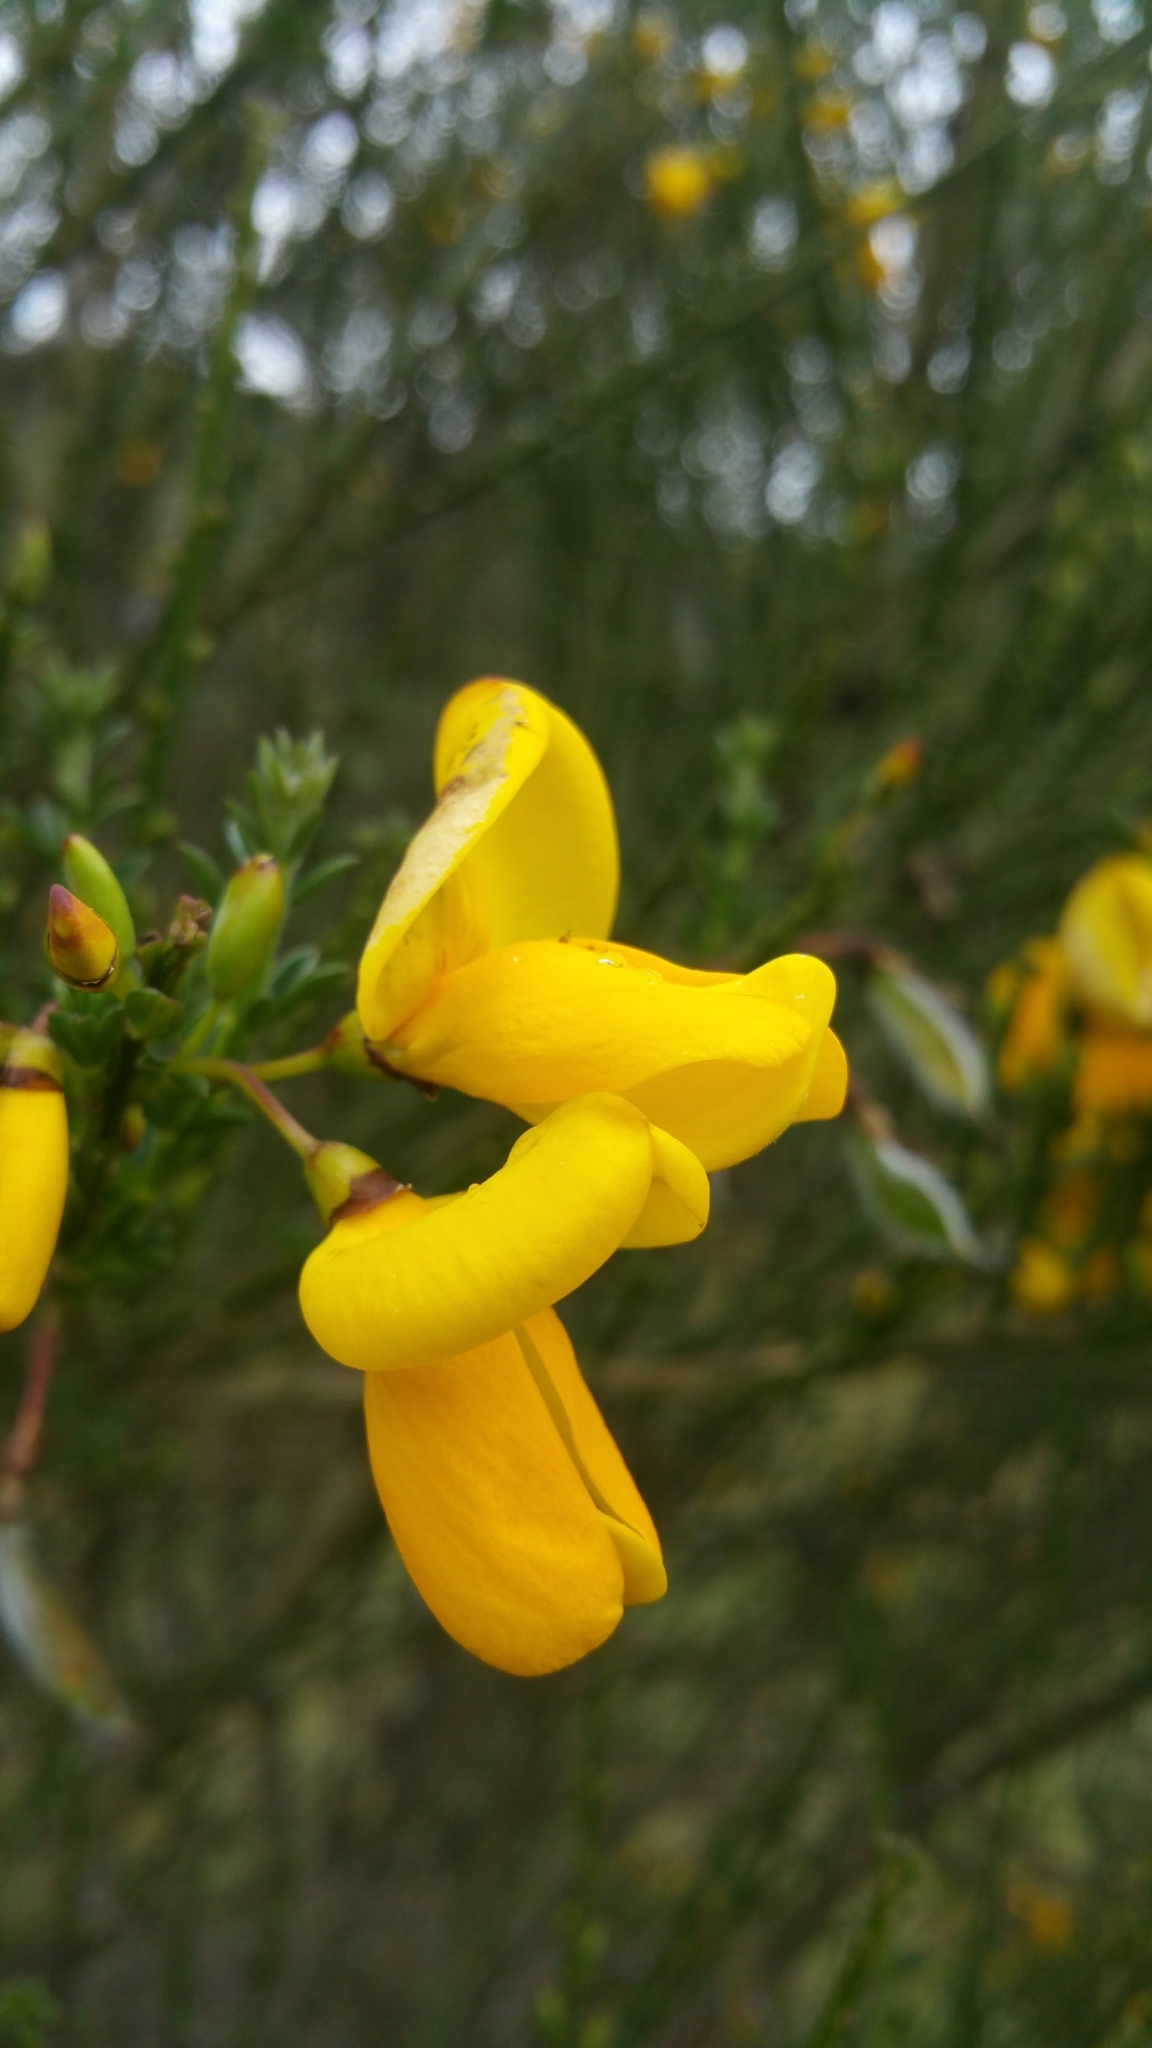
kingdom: Plantae
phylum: Tracheophyta
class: Magnoliopsida
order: Fabales
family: Fabaceae
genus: Cytisus
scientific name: Cytisus scoparius
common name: Scotch broom
